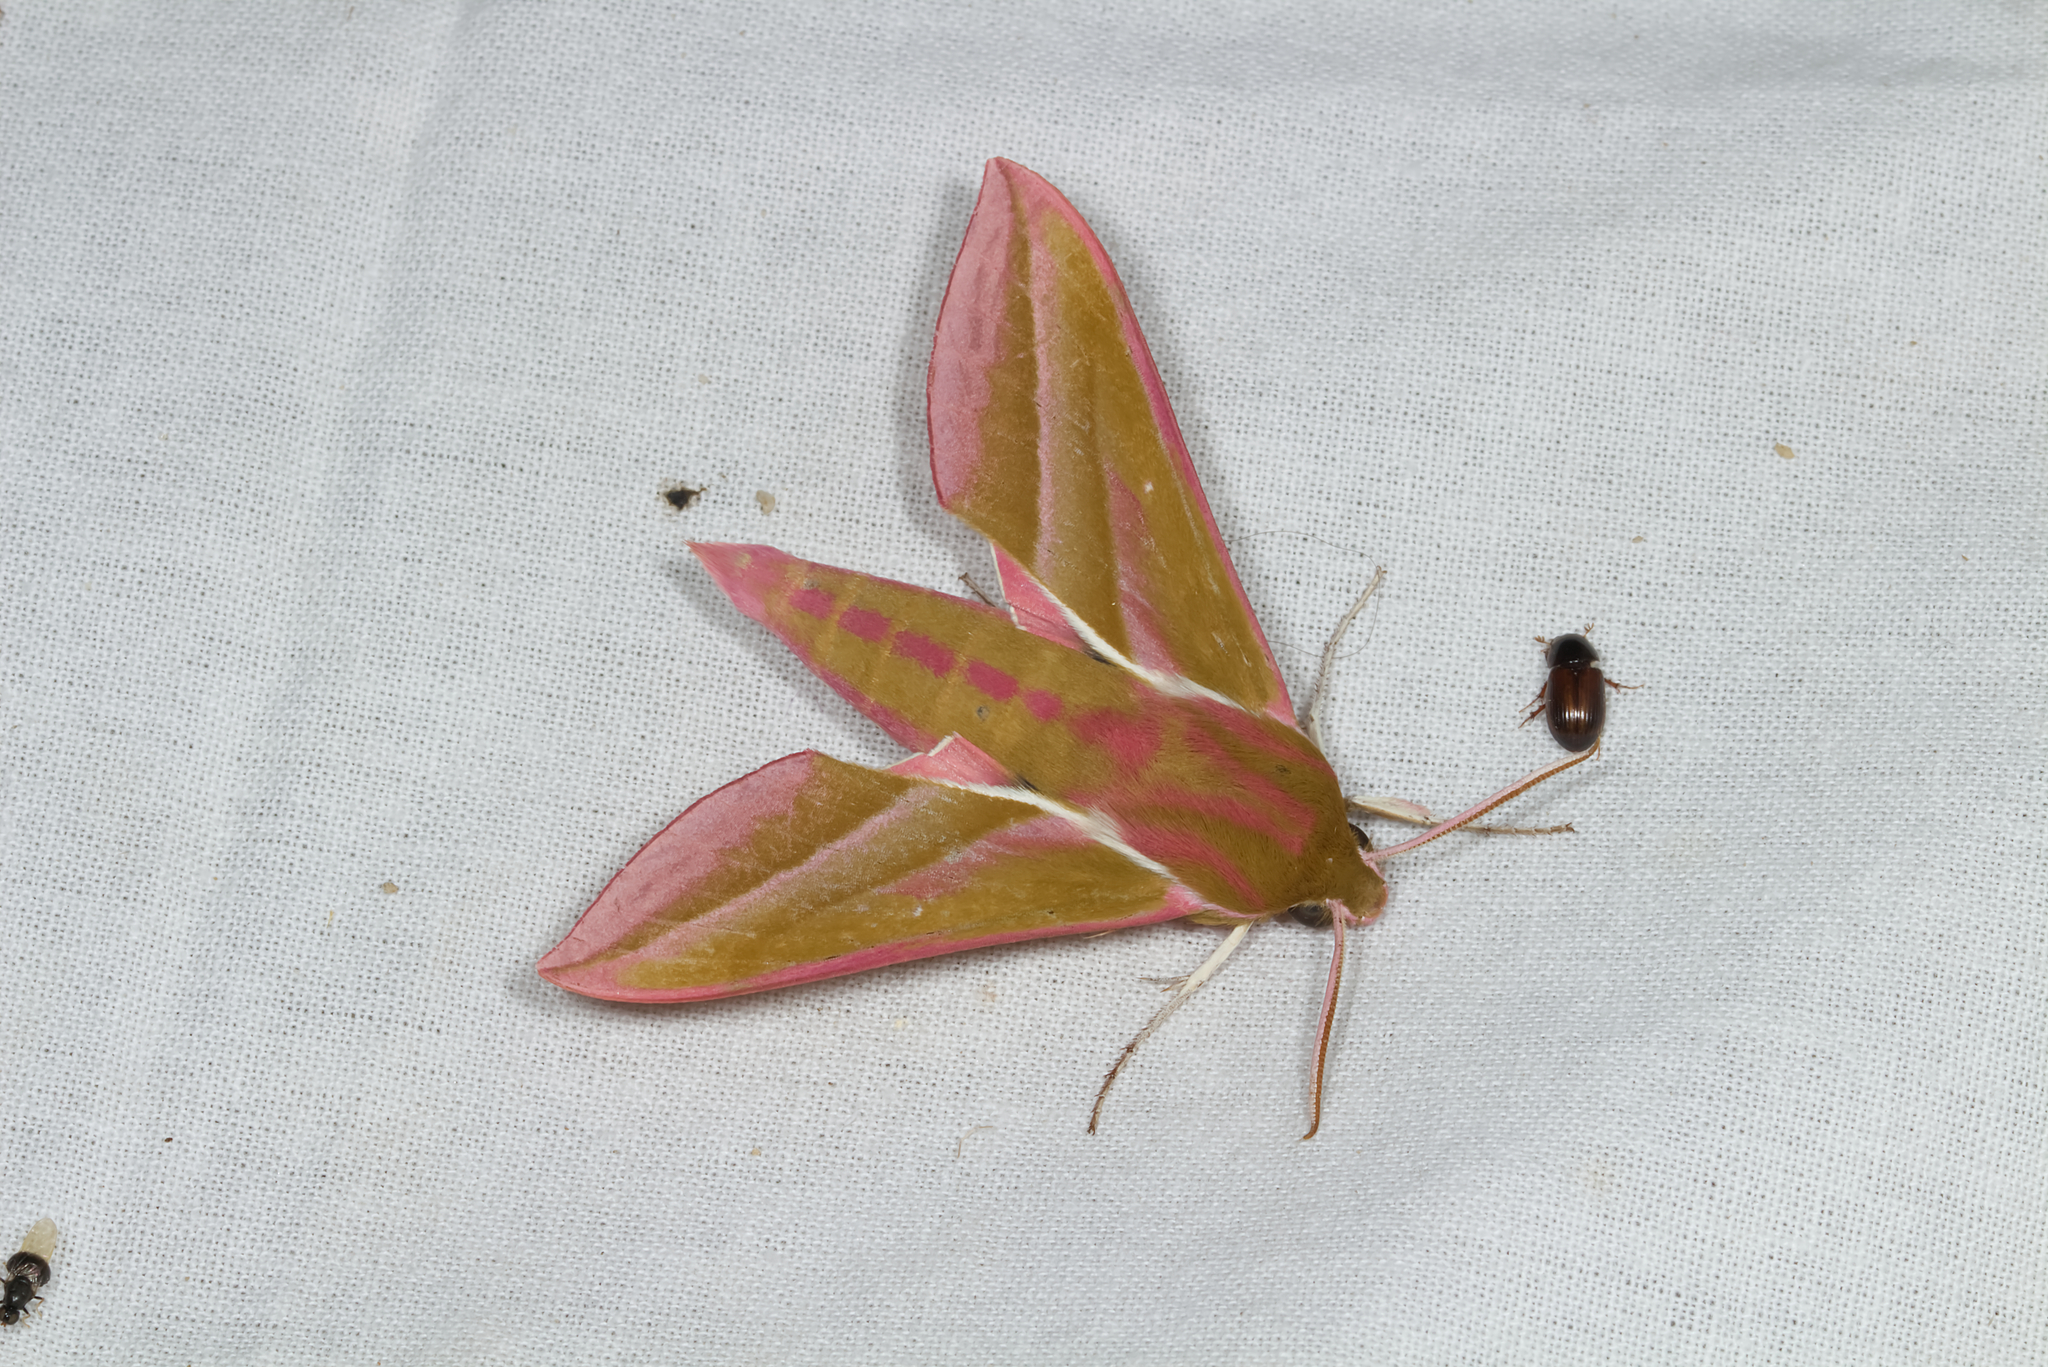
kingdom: Animalia
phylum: Arthropoda
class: Insecta
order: Lepidoptera
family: Sphingidae
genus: Deilephila
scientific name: Deilephila elpenor
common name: Elephant hawk-moth
